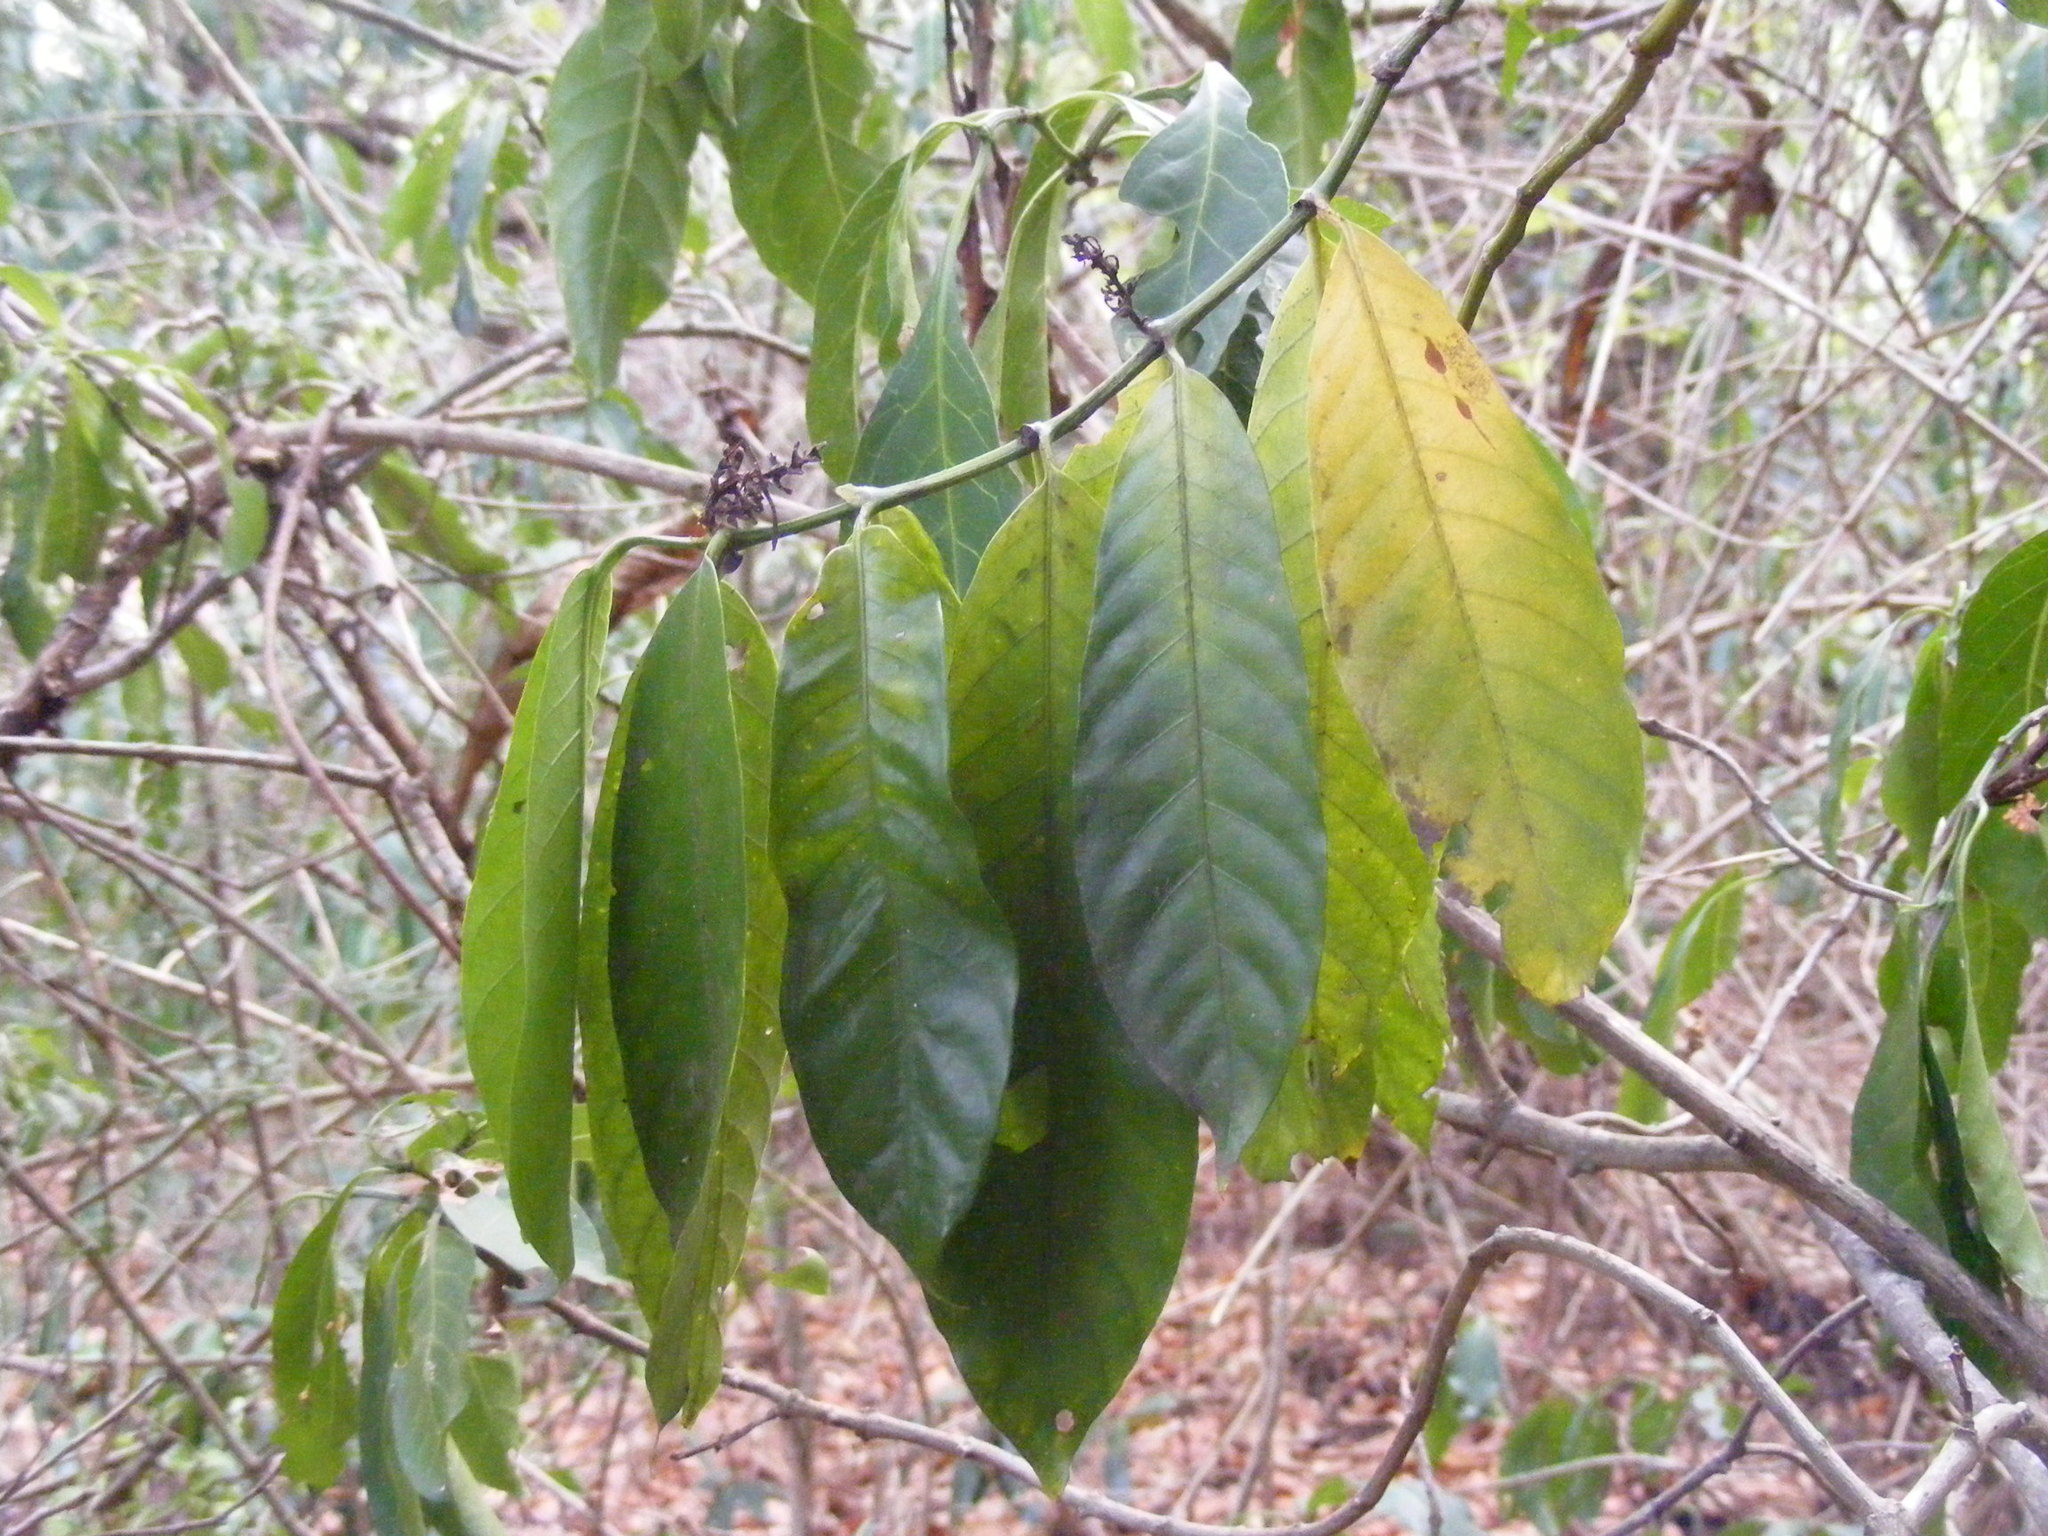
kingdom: Plantae
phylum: Tracheophyta
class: Magnoliopsida
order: Gentianales
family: Rubiaceae
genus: Oxyanthus
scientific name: Oxyanthus speciosus
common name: Whipstick loquat
